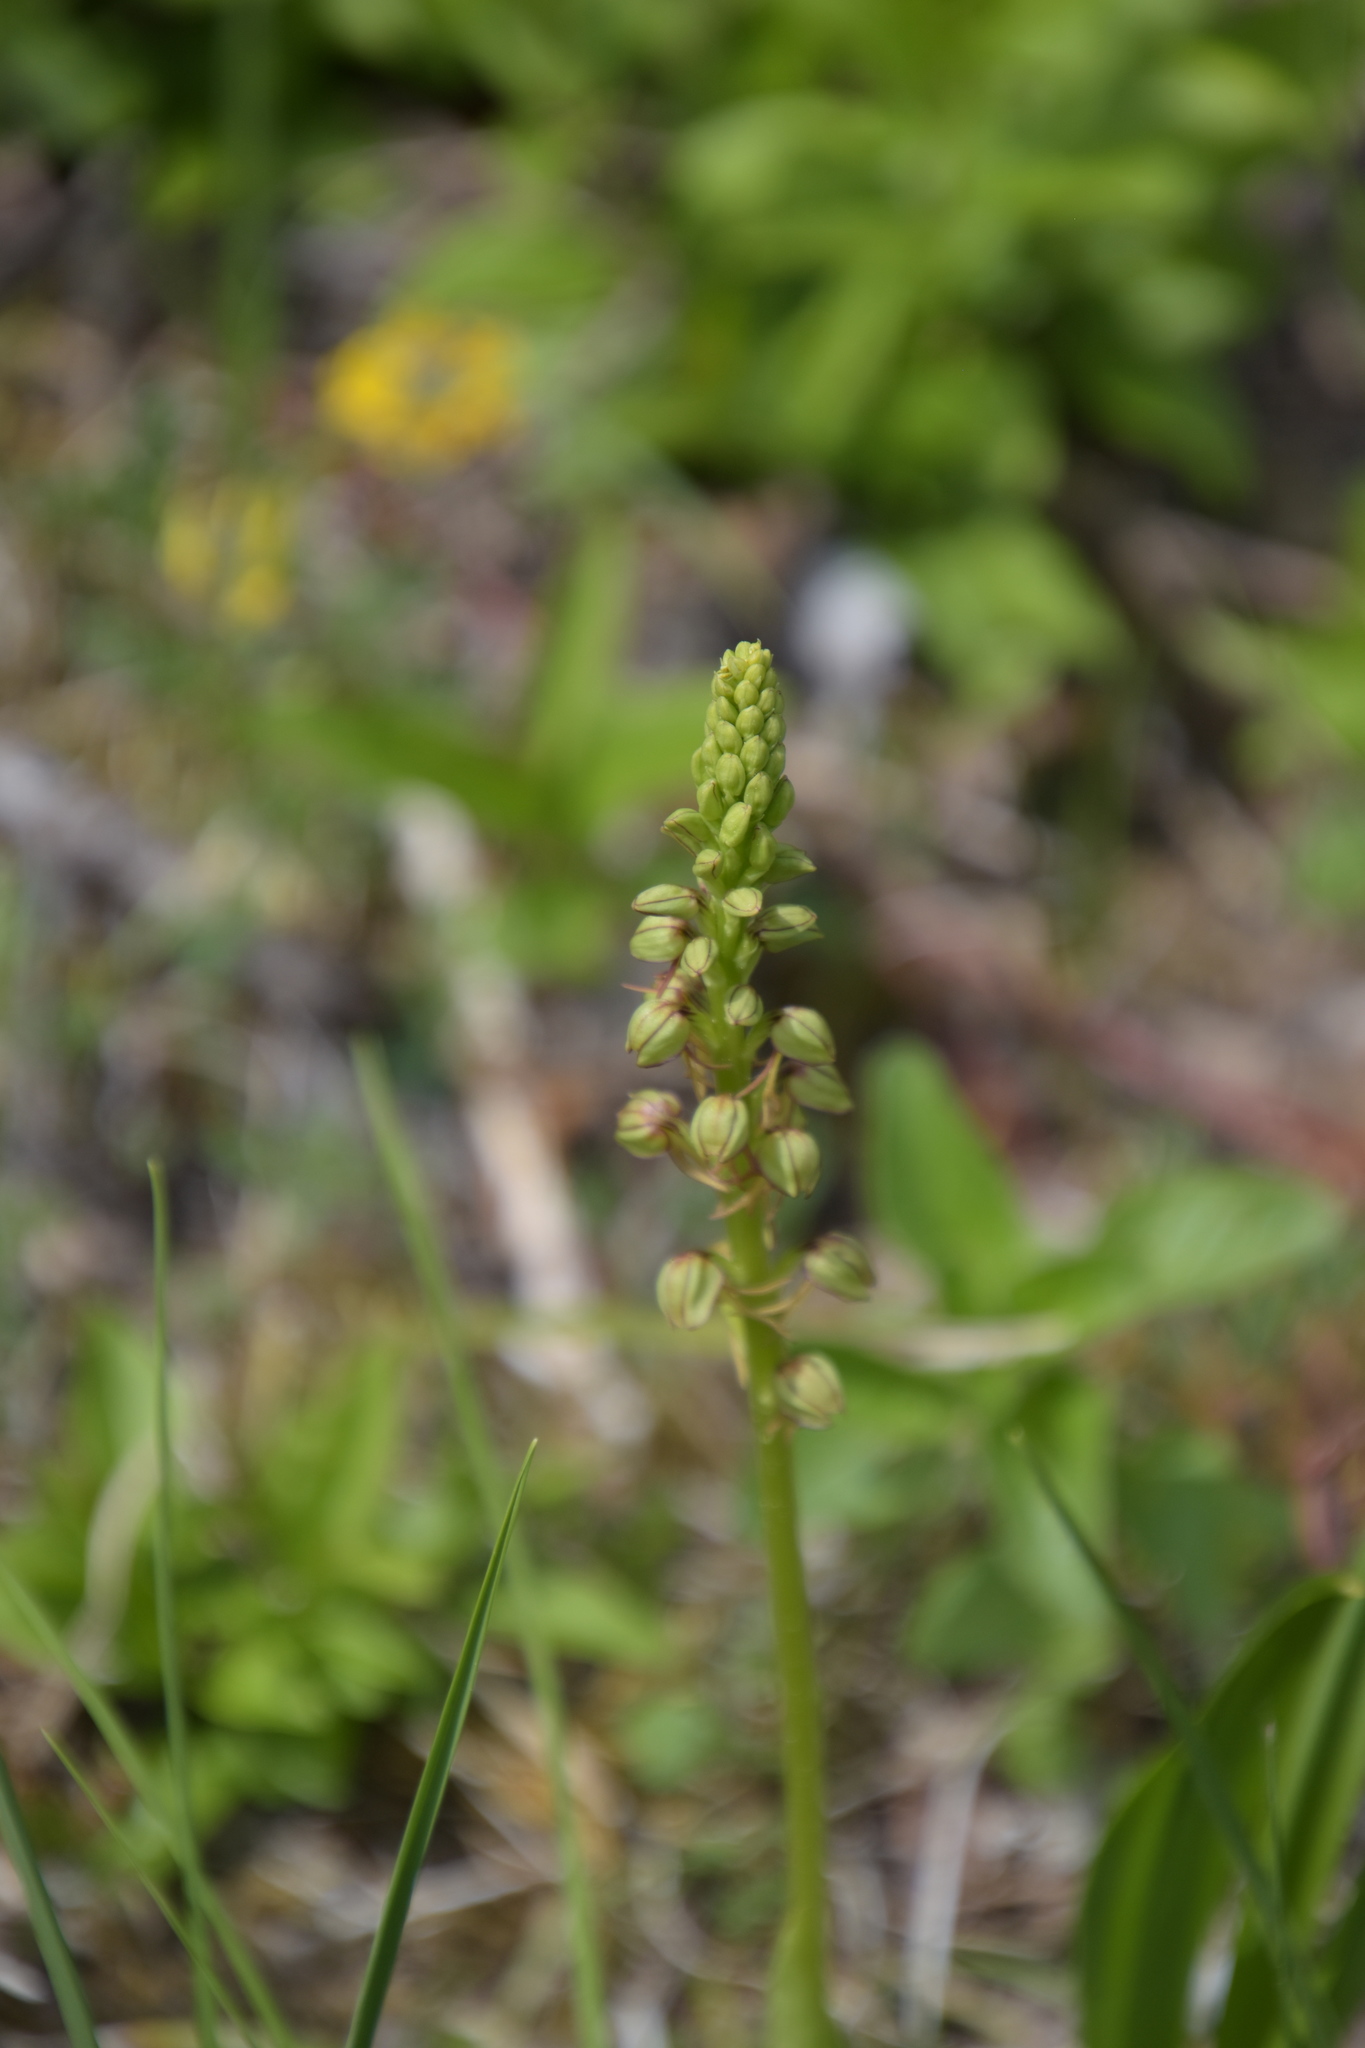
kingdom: Plantae
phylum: Tracheophyta
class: Liliopsida
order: Asparagales
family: Orchidaceae
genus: Orchis
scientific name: Orchis anthropophora
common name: Man orchid
